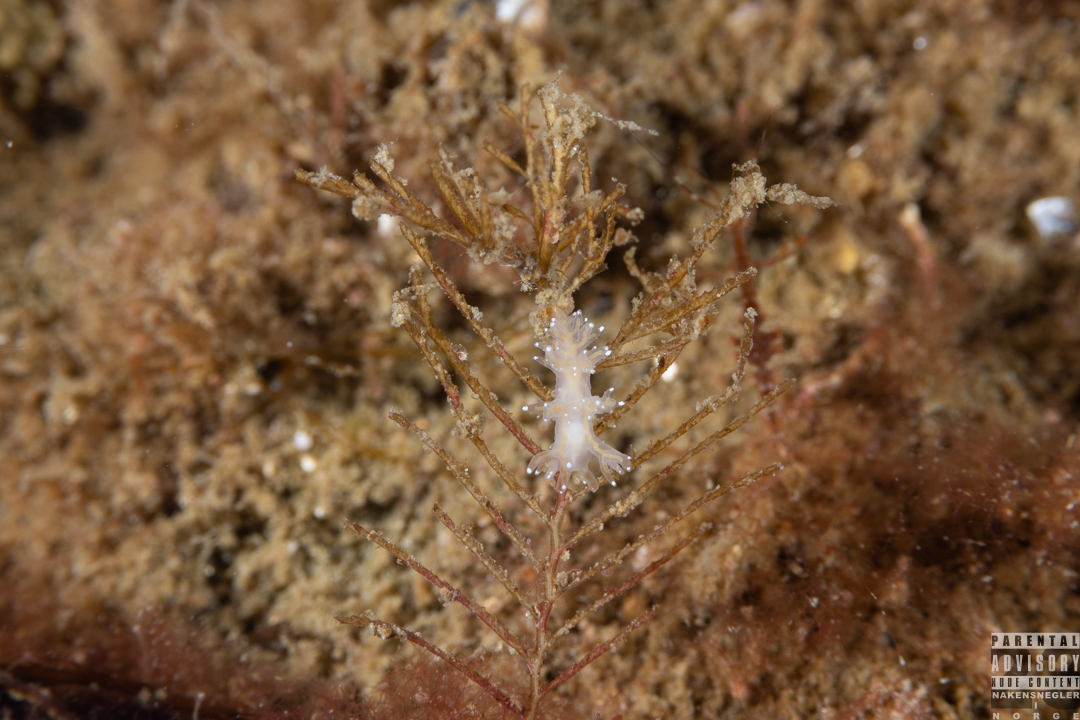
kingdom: Animalia
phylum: Mollusca
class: Gastropoda
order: Nudibranchia
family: Dendronotidae
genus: Dendronotus
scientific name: Dendronotus keatleyae
